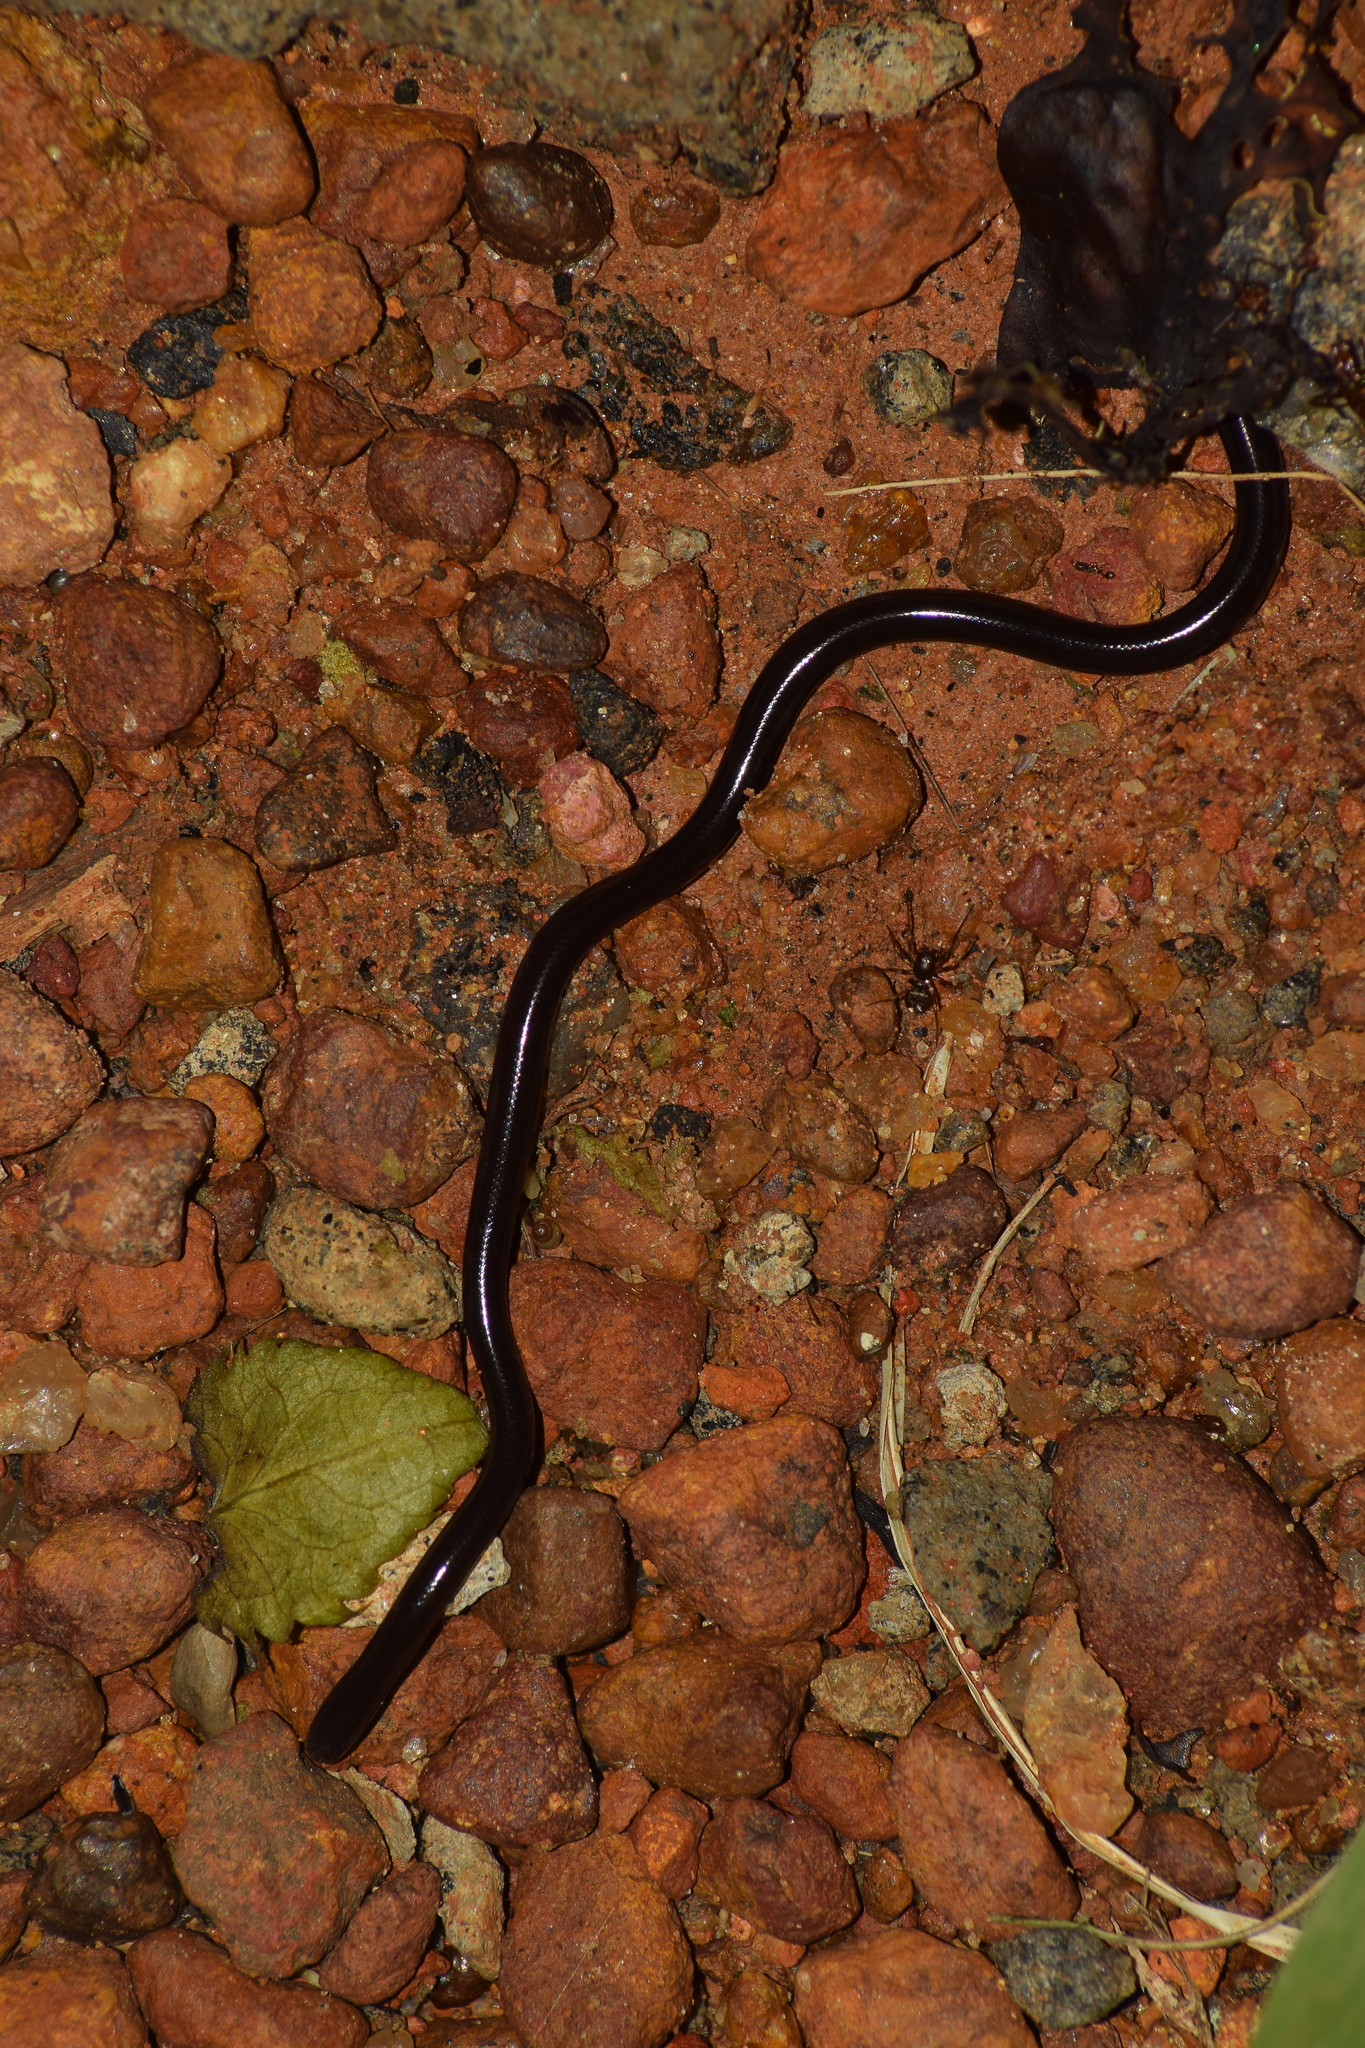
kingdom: Animalia
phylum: Chordata
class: Squamata
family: Typhlopidae
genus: Indotyphlops
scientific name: Indotyphlops braminus
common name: Brahminy blindsnake
